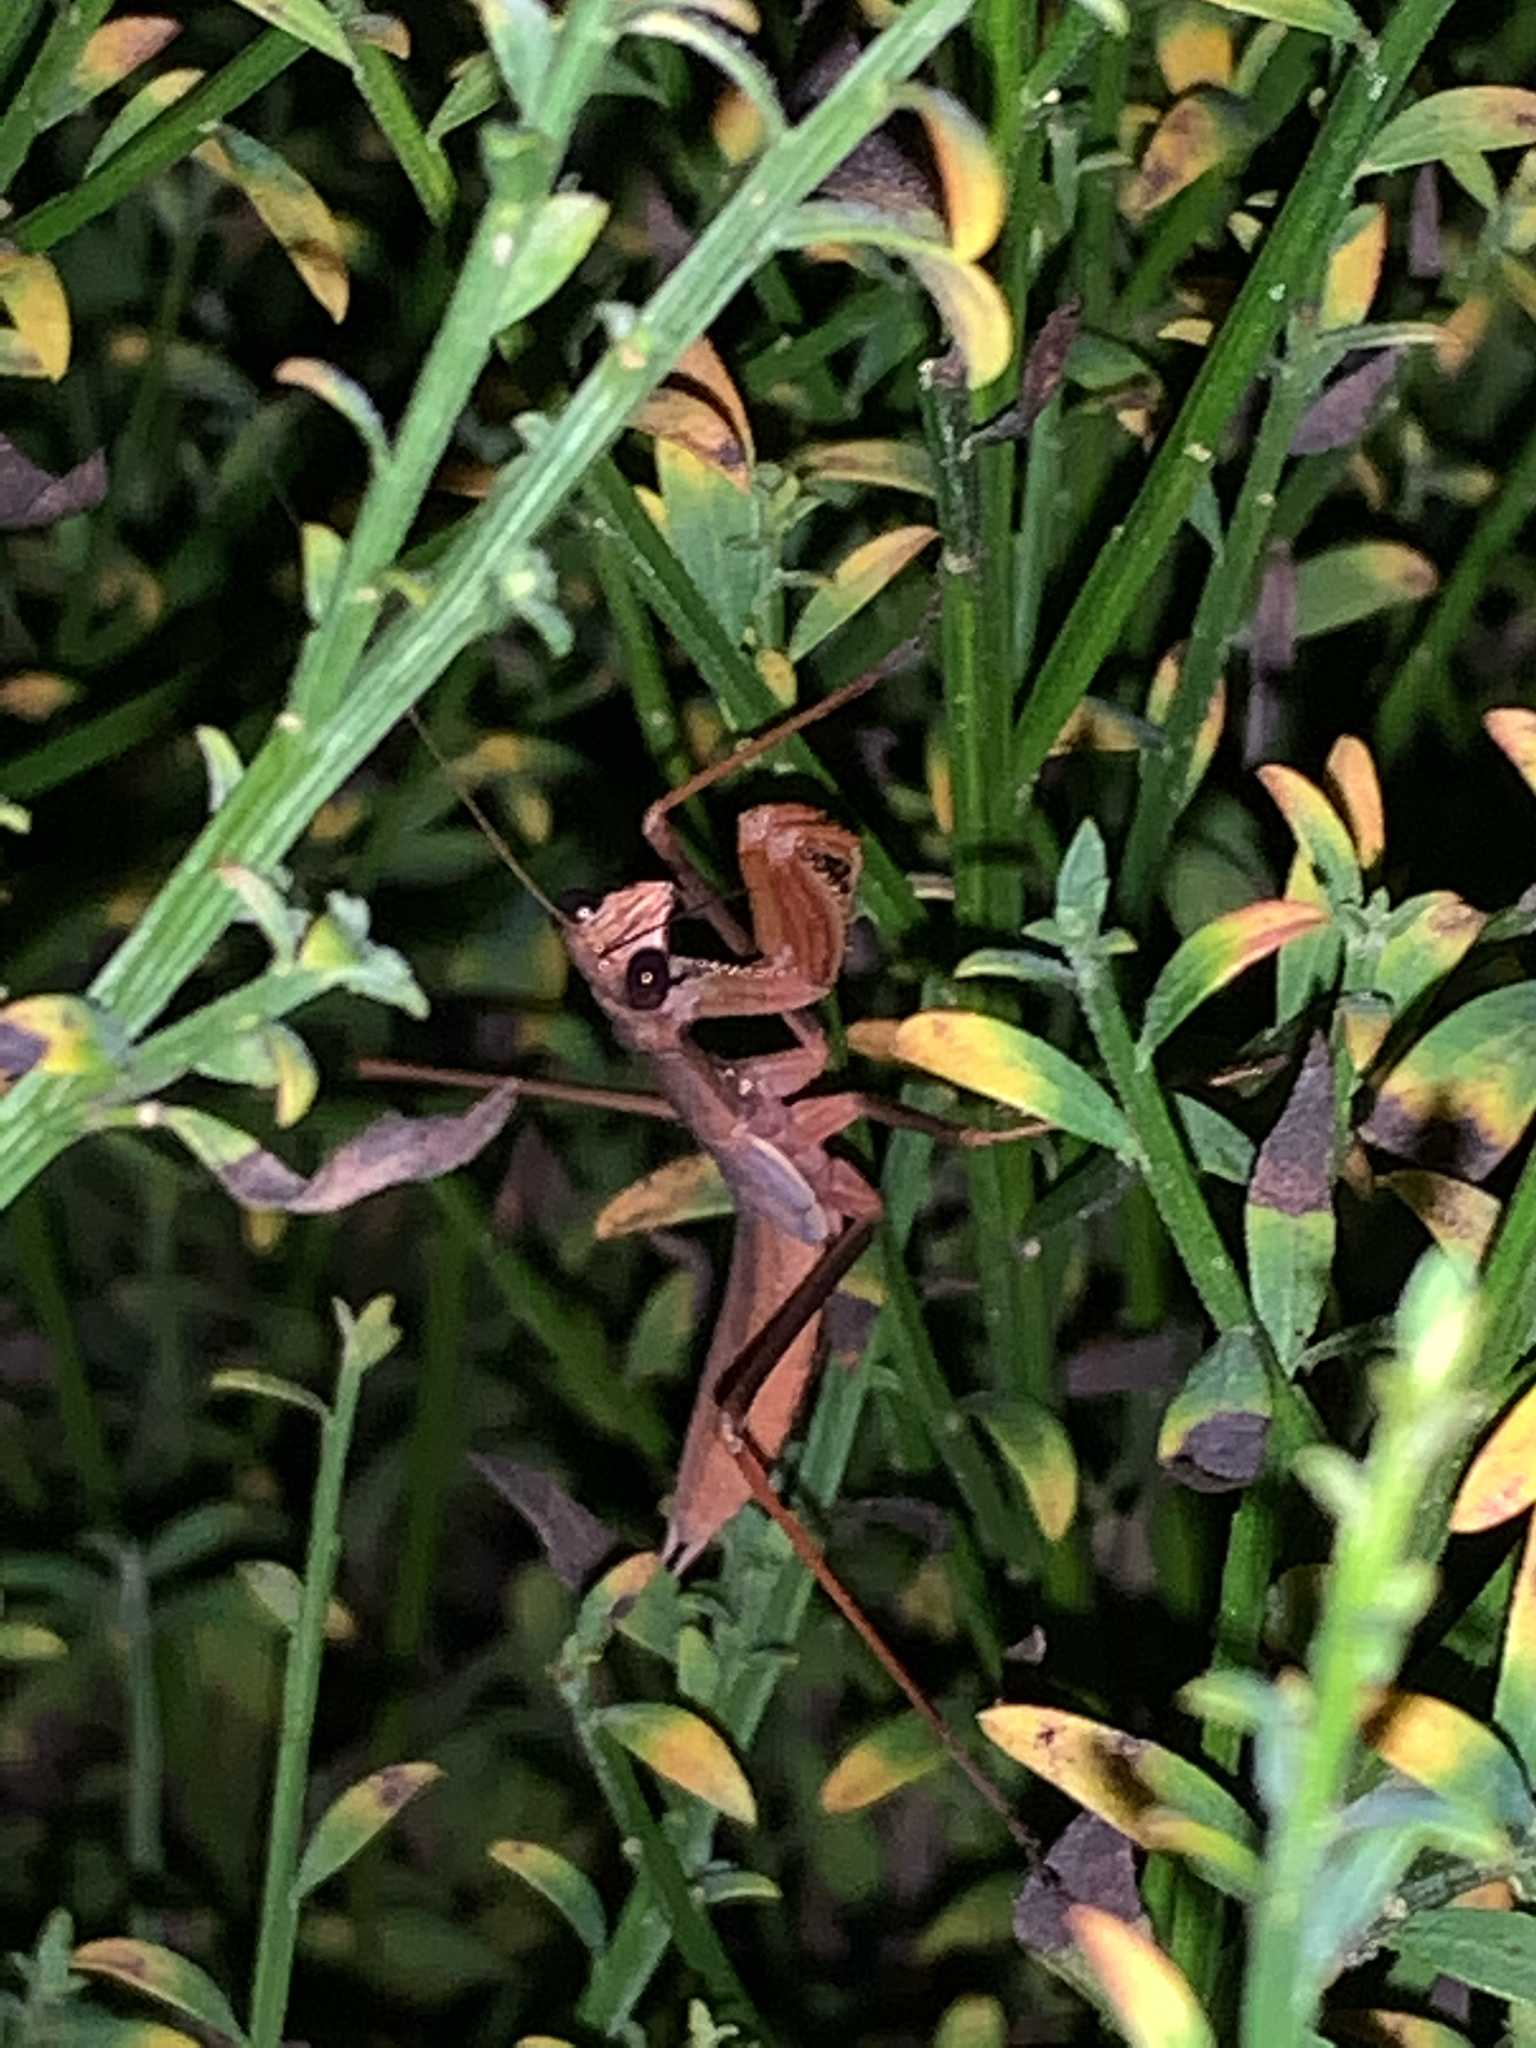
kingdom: Animalia
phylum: Arthropoda
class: Insecta
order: Mantodea
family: Mantidae
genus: Tenodera
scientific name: Tenodera sinensis
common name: Chinese mantis
